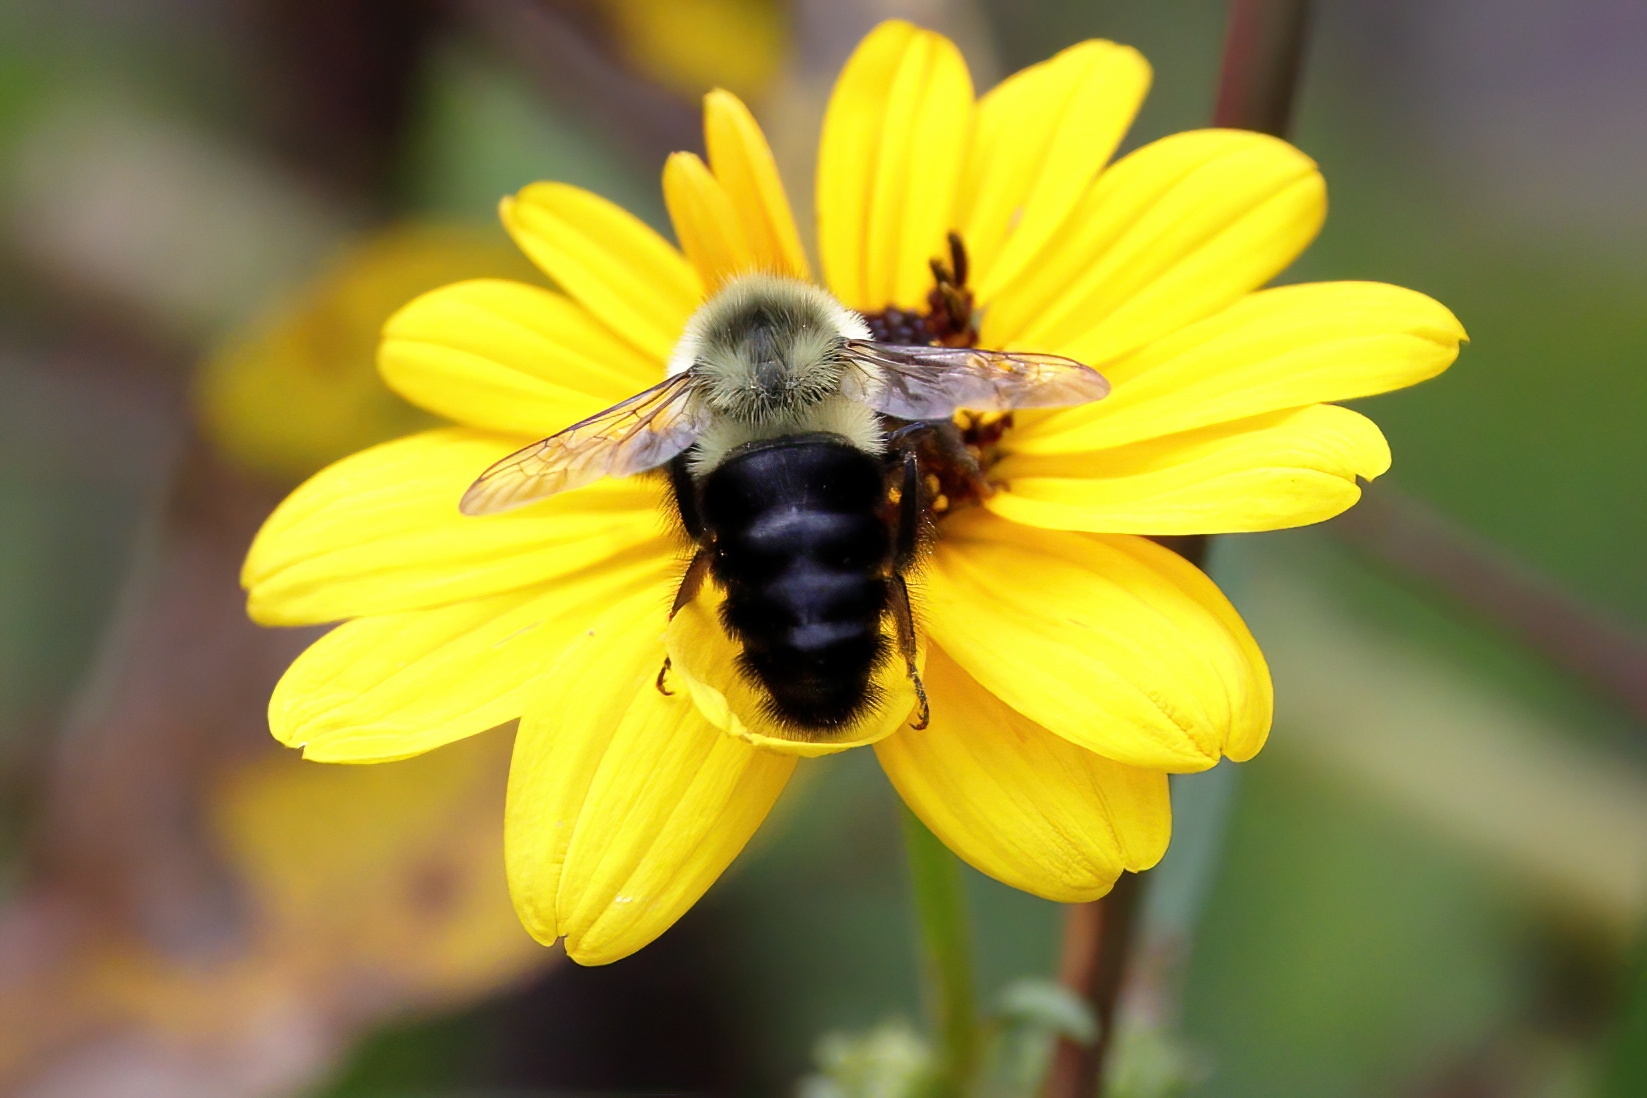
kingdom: Animalia
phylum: Arthropoda
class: Insecta
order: Hymenoptera
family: Apidae
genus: Bombus
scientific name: Bombus impatiens
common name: Common eastern bumble bee
